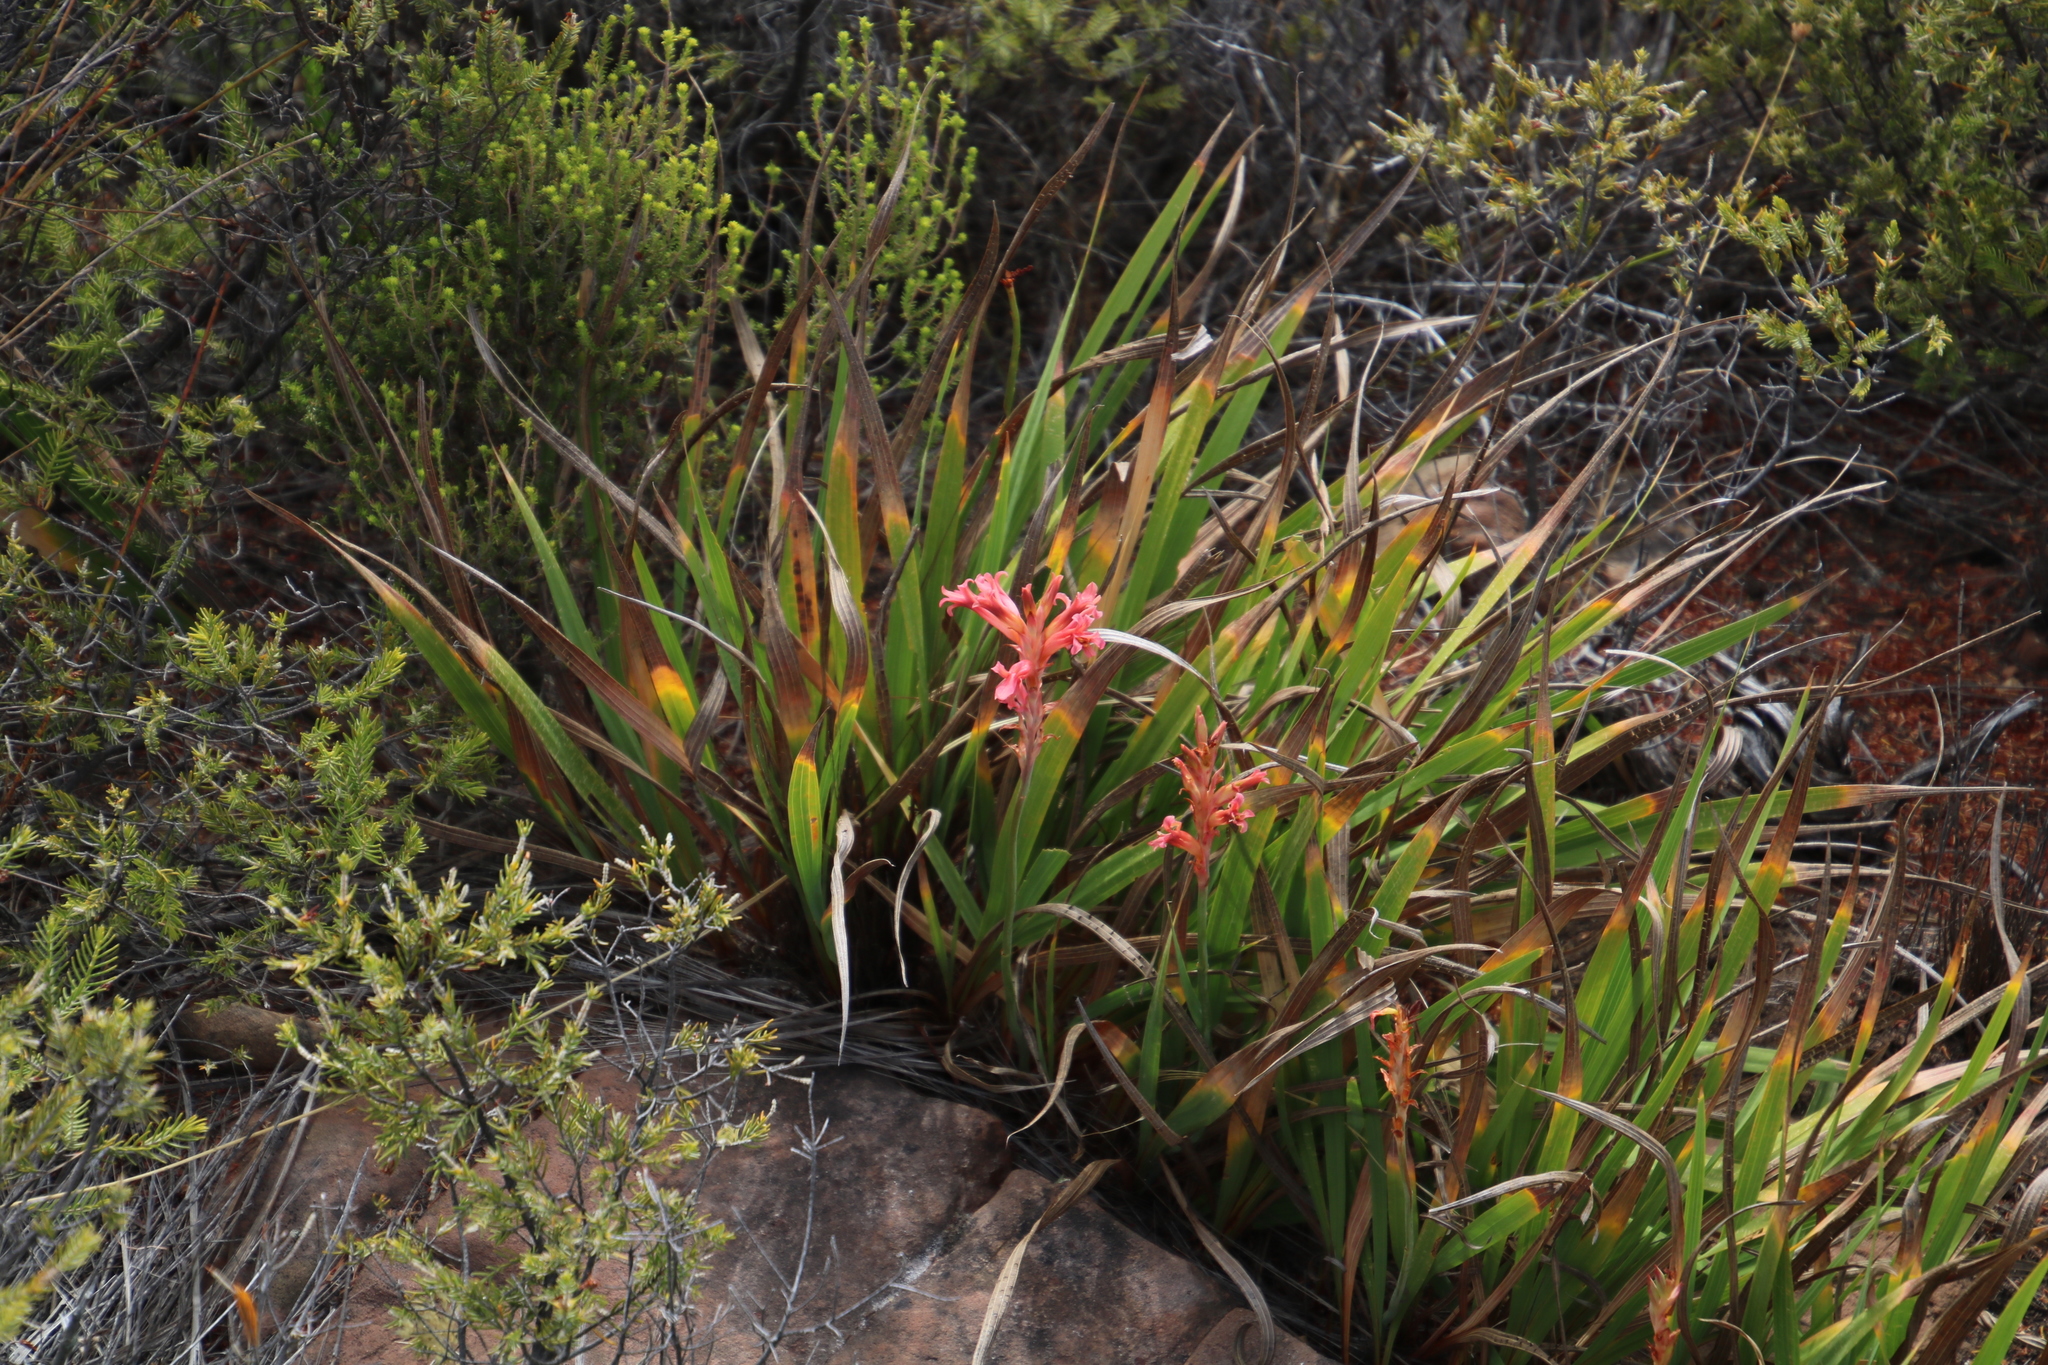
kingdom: Plantae
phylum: Tracheophyta
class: Liliopsida
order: Asparagales
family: Iridaceae
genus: Tritoniopsis
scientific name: Tritoniopsis antholyza
